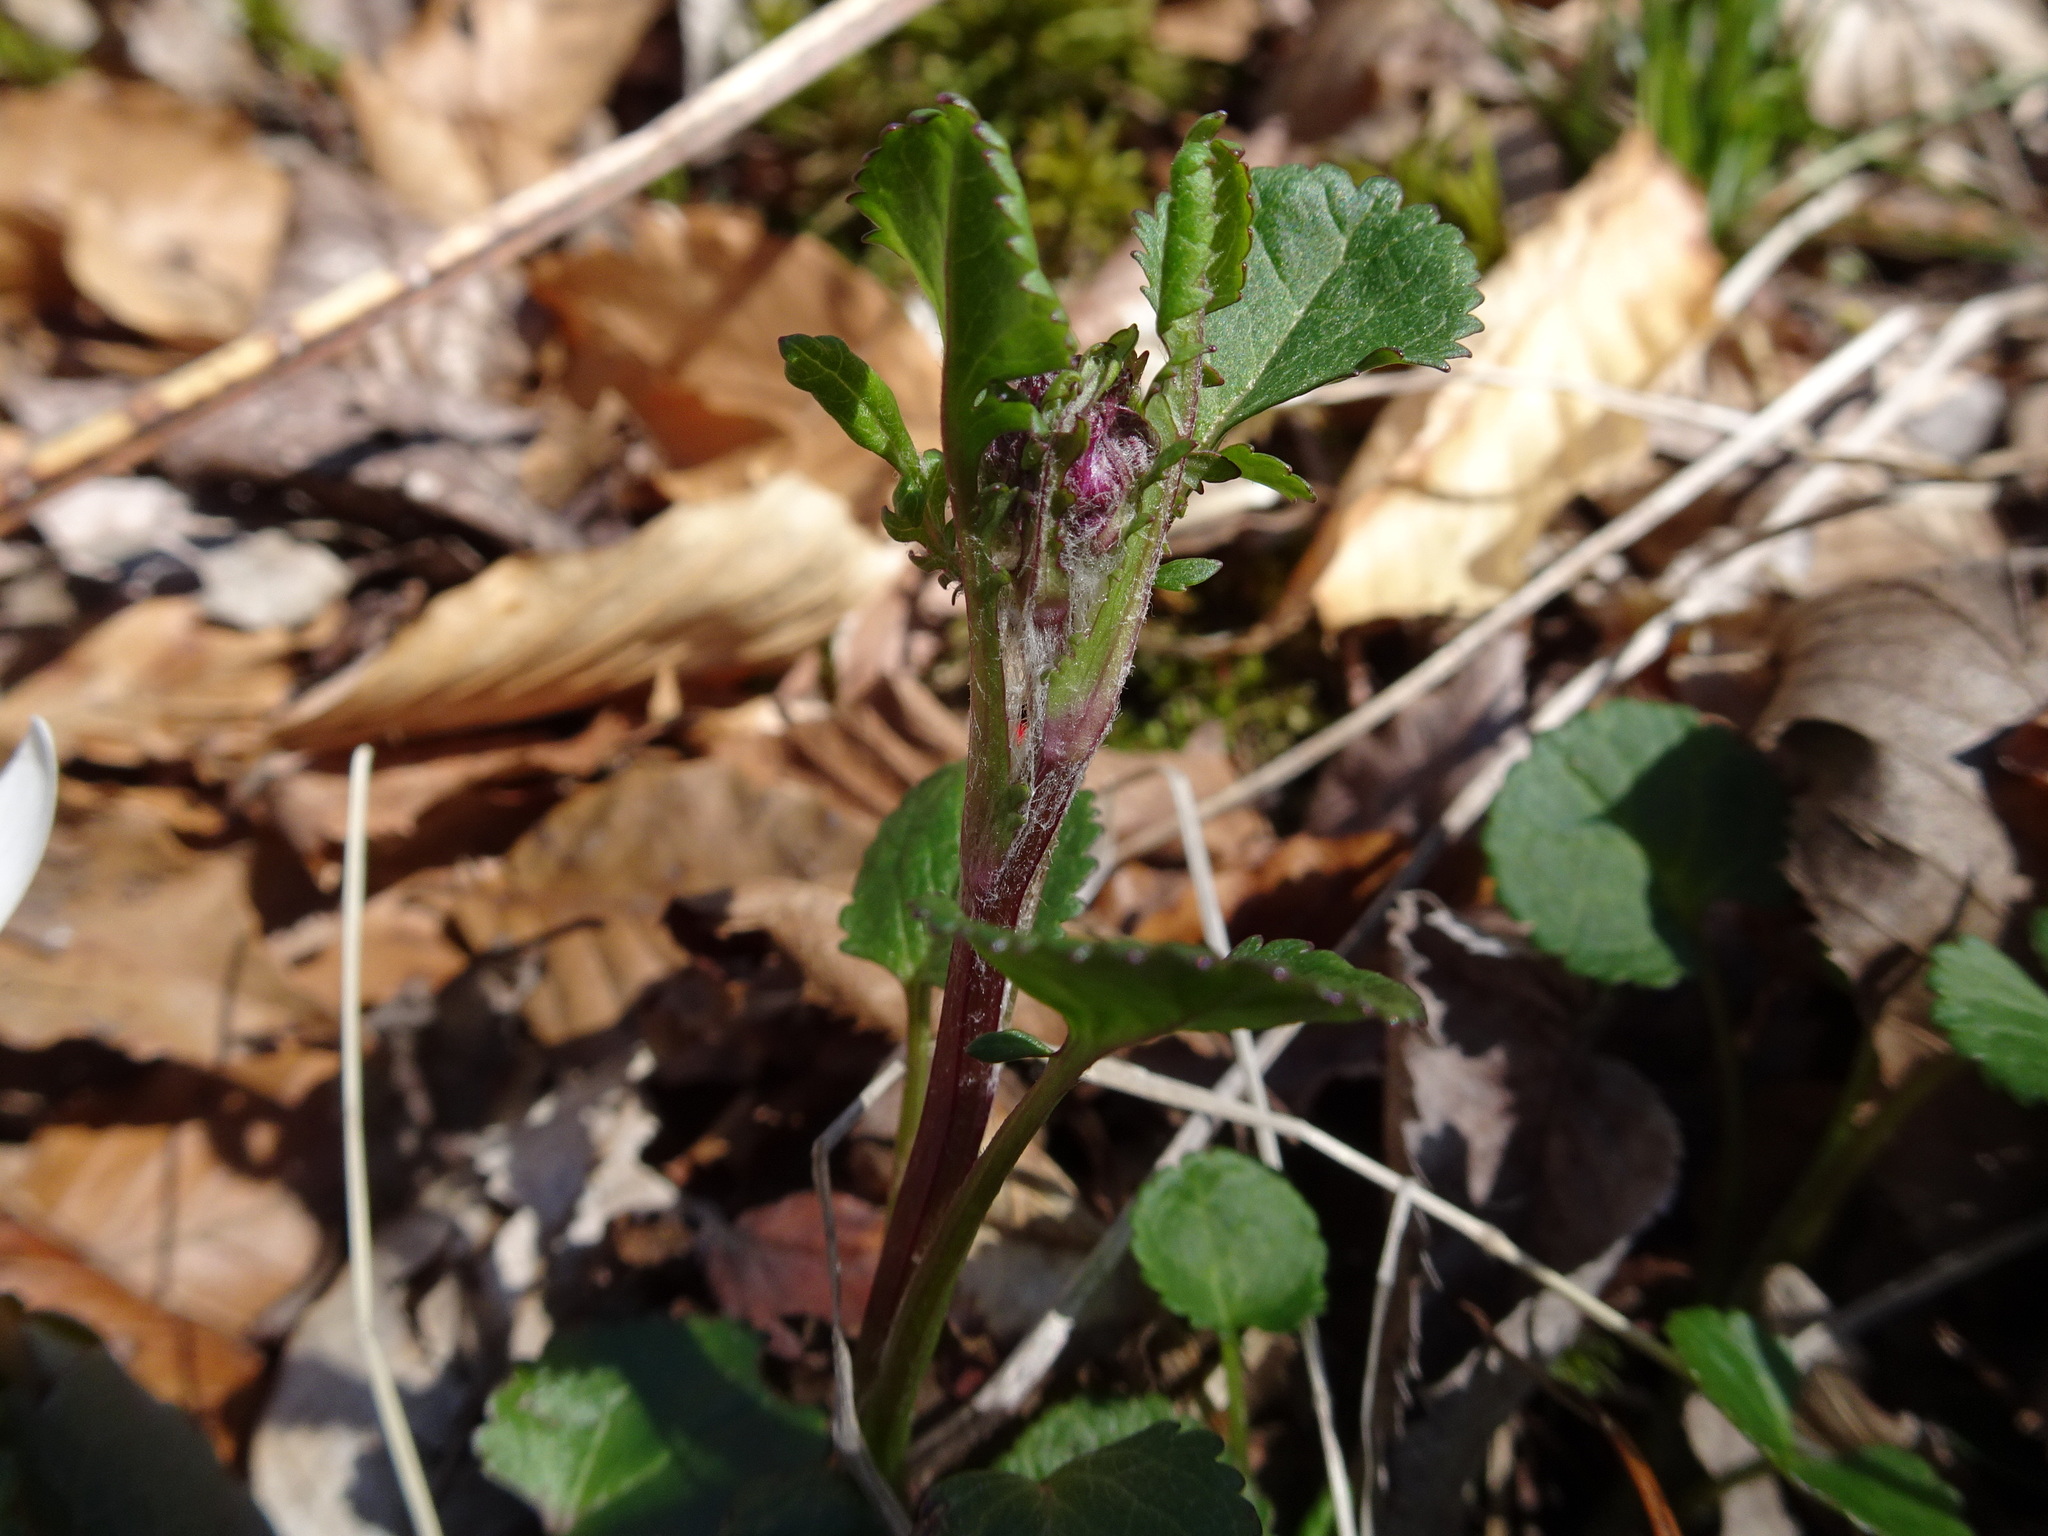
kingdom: Plantae
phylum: Tracheophyta
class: Magnoliopsida
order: Asterales
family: Asteraceae
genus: Packera
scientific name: Packera aurea
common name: Golden groundsel
